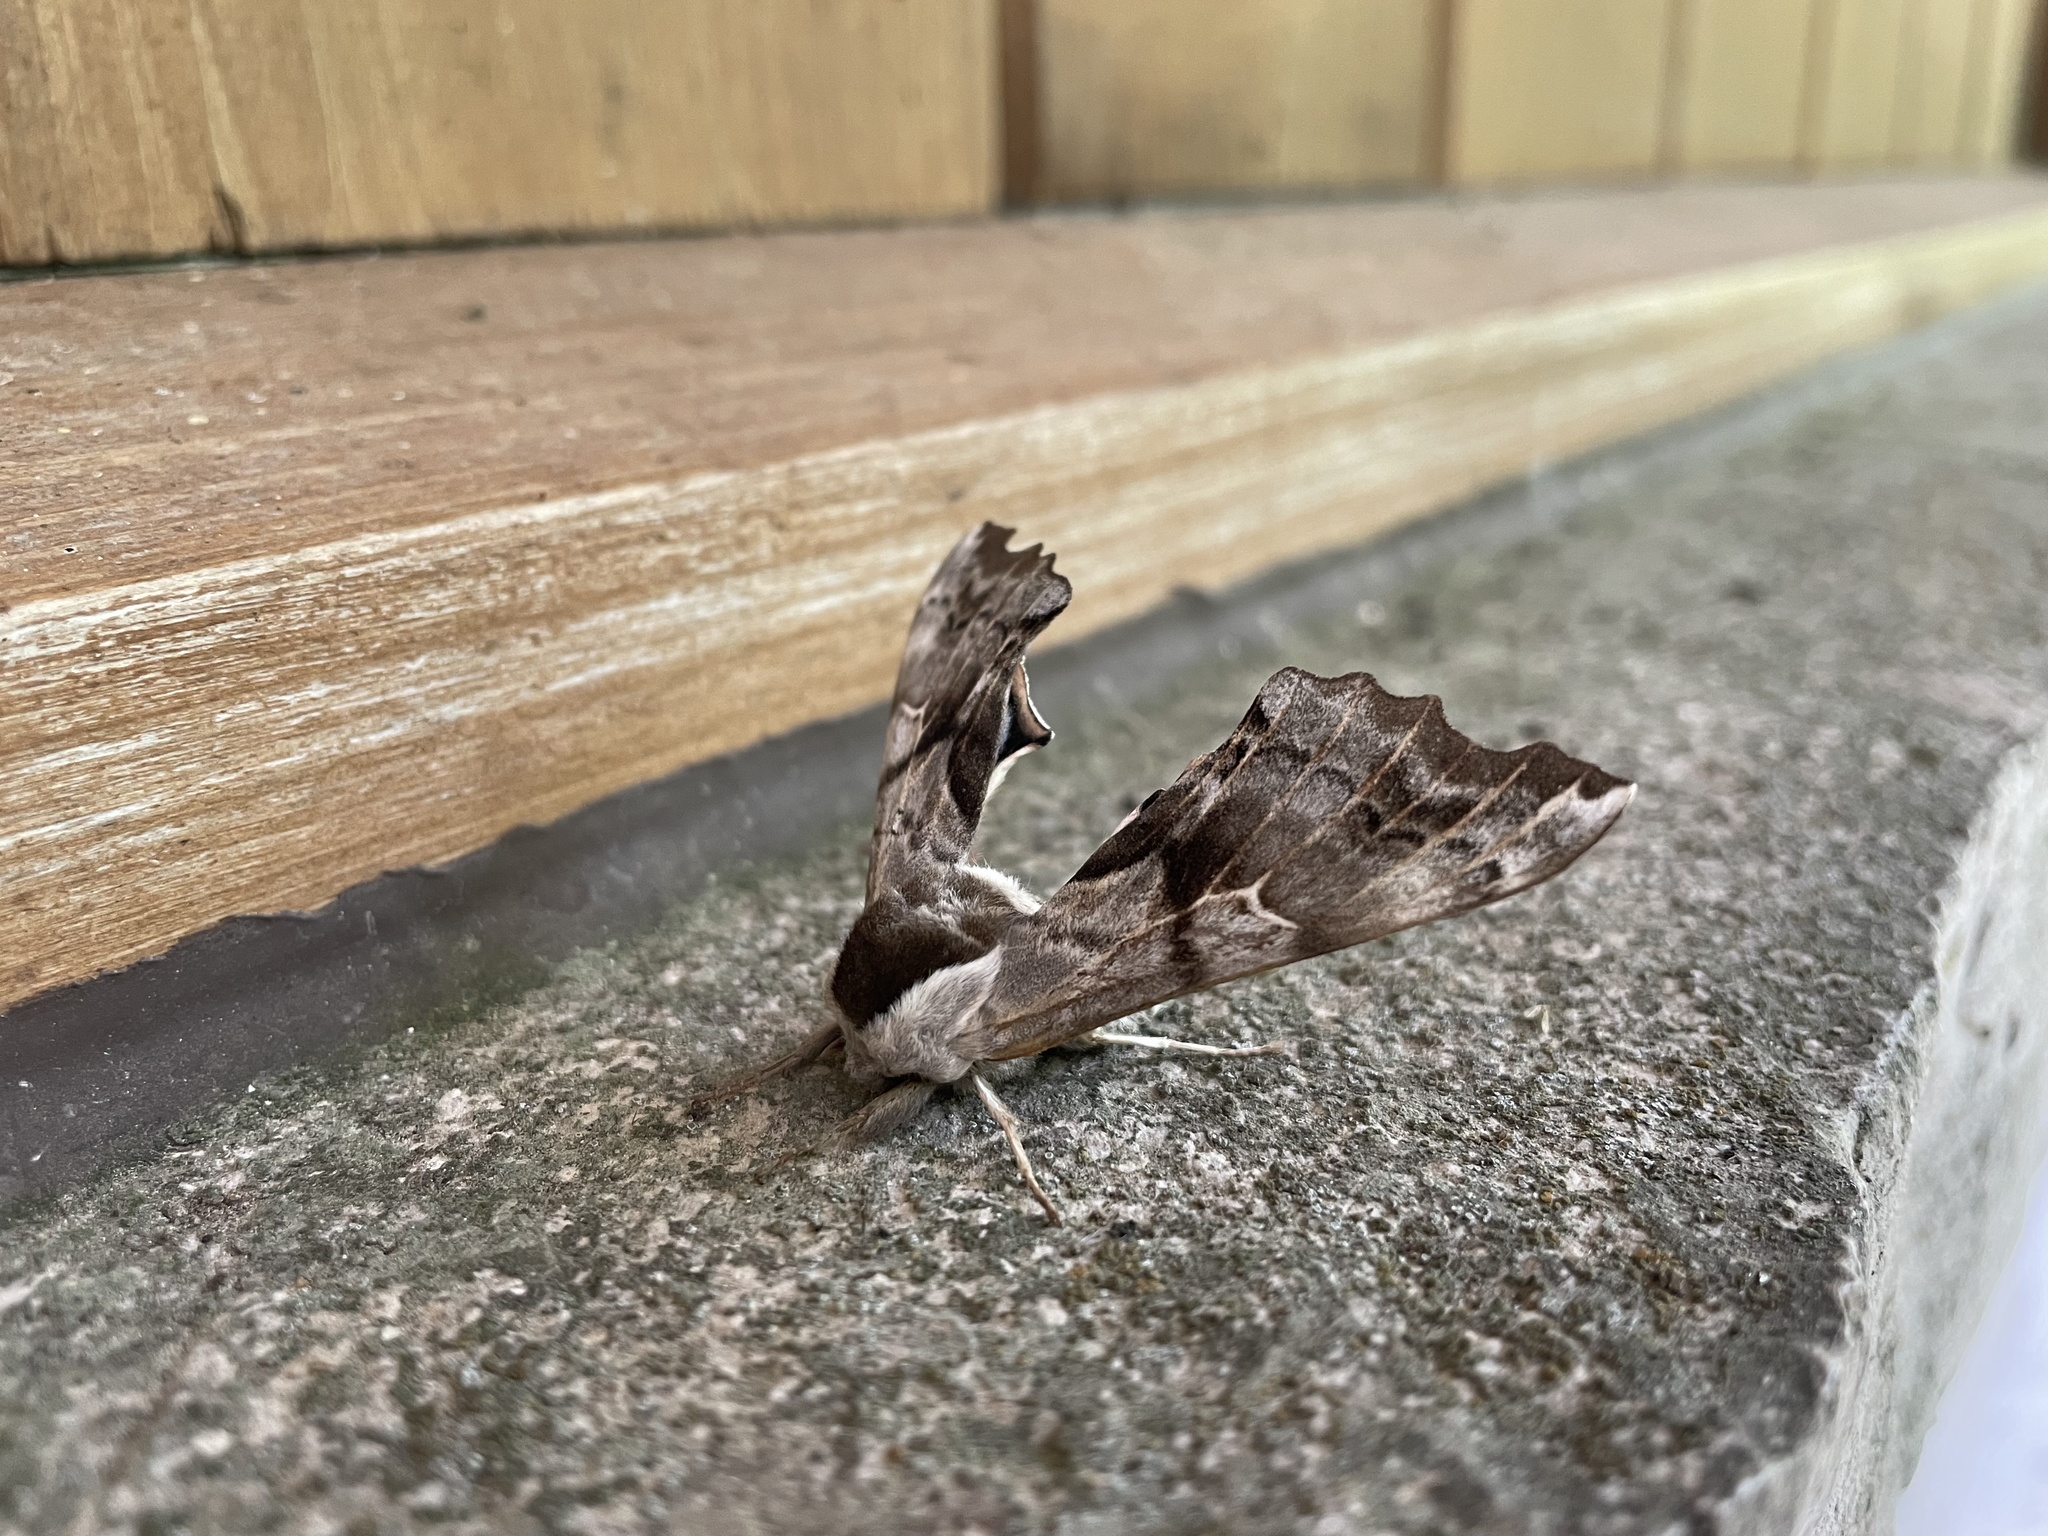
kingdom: Animalia
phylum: Arthropoda
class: Insecta
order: Lepidoptera
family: Sphingidae
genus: Smerinthus
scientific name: Smerinthus cerisyi
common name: Cerisy's sphinx moth
